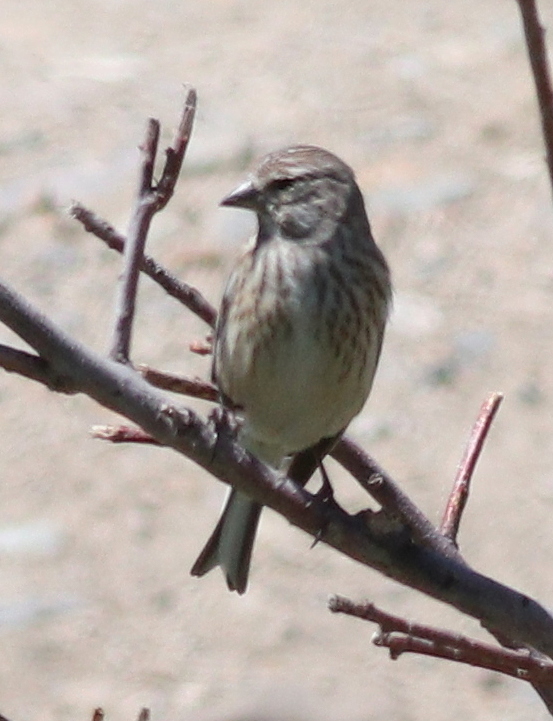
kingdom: Animalia
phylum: Chordata
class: Aves
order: Passeriformes
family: Fringillidae
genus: Linaria
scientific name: Linaria cannabina
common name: Common linnet
